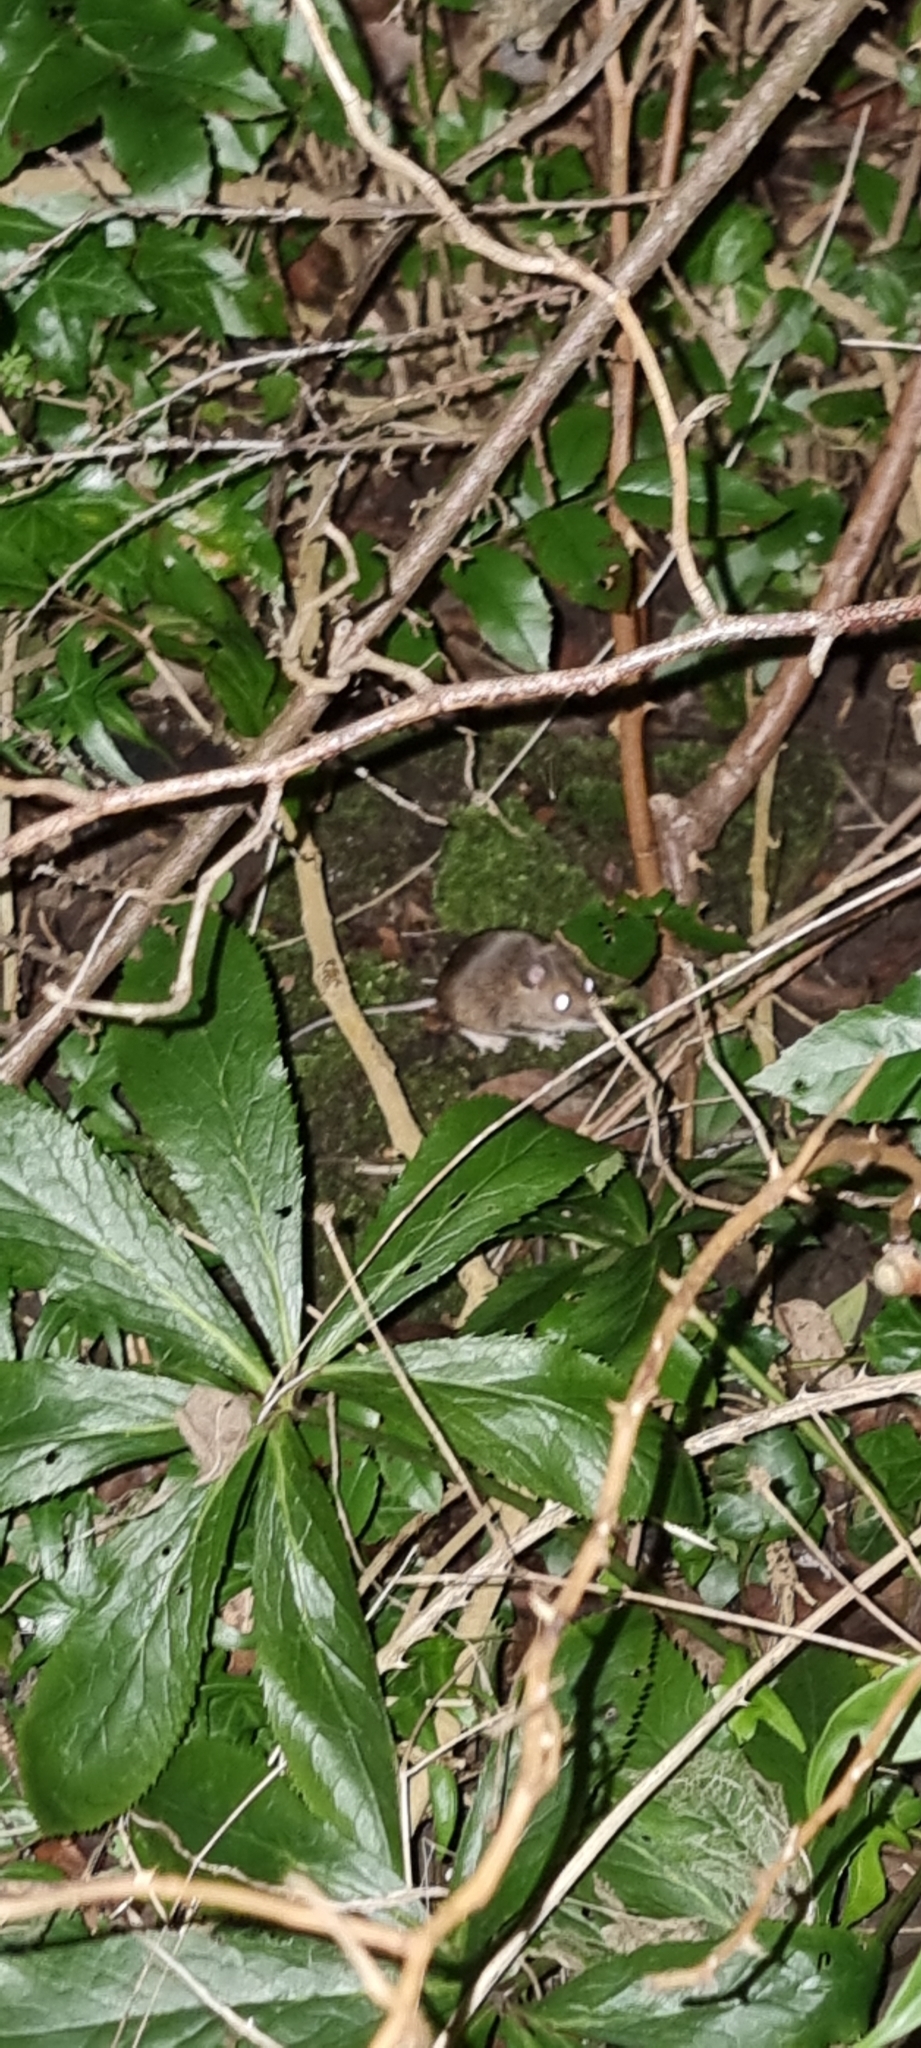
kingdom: Animalia
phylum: Chordata
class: Mammalia
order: Rodentia
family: Muridae
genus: Apodemus
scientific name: Apodemus sylvaticus
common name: Wood mouse
